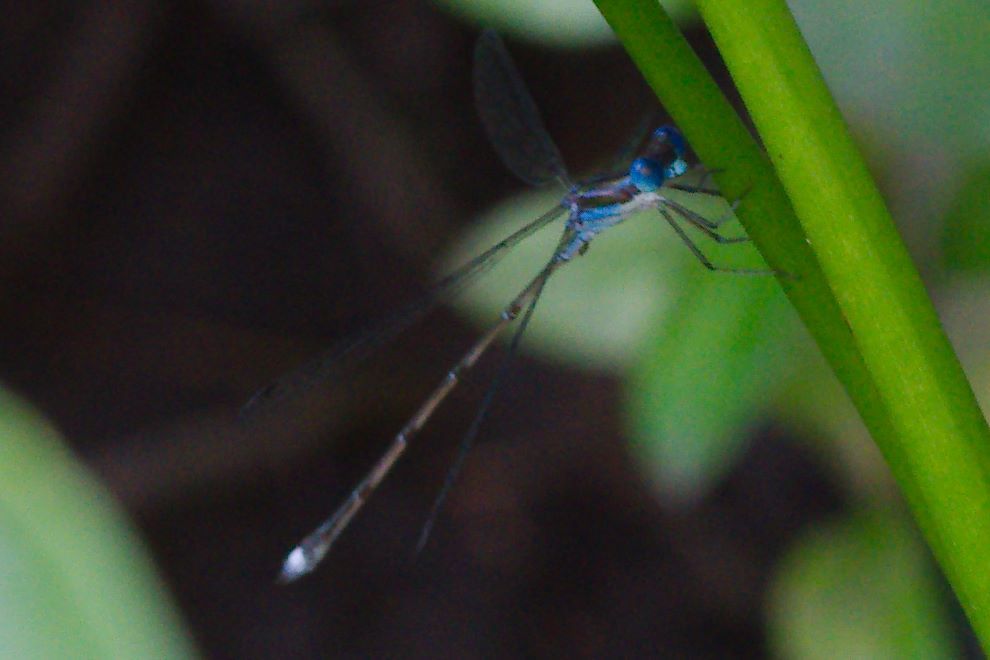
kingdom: Animalia
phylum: Arthropoda
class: Insecta
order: Odonata
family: Lestidae
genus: Lestes
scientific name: Lestes tenuatus
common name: Blue-striped spreadwing
